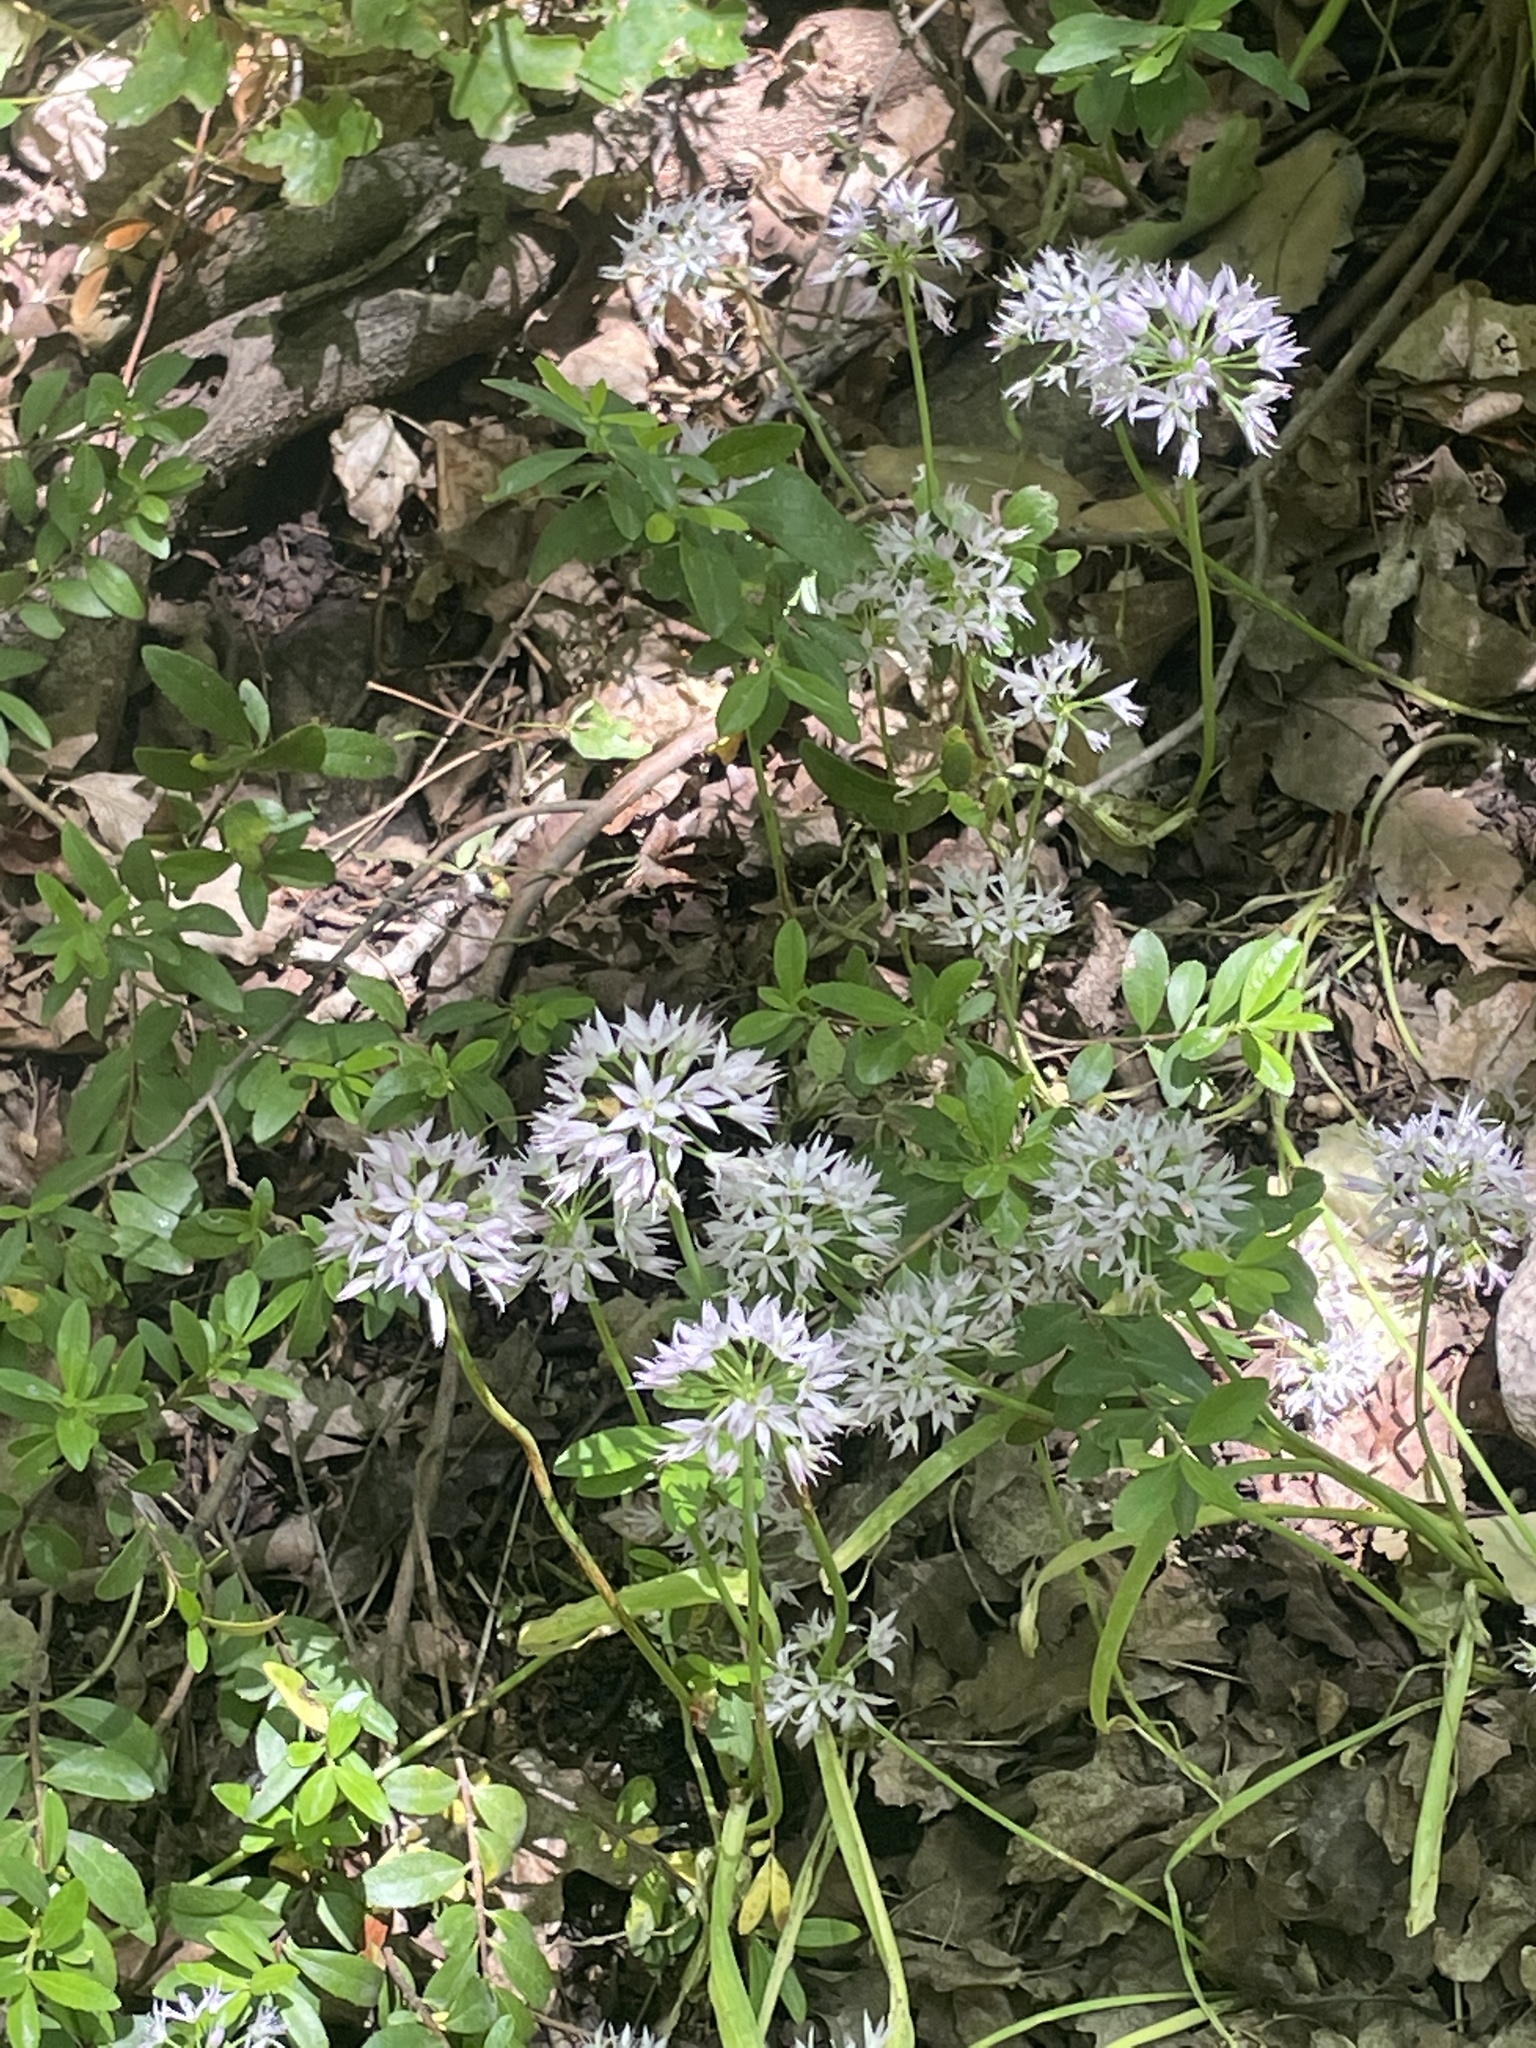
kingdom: Plantae
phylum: Tracheophyta
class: Liliopsida
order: Asparagales
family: Amaryllidaceae
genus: Allium
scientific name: Allium bisceptrum
